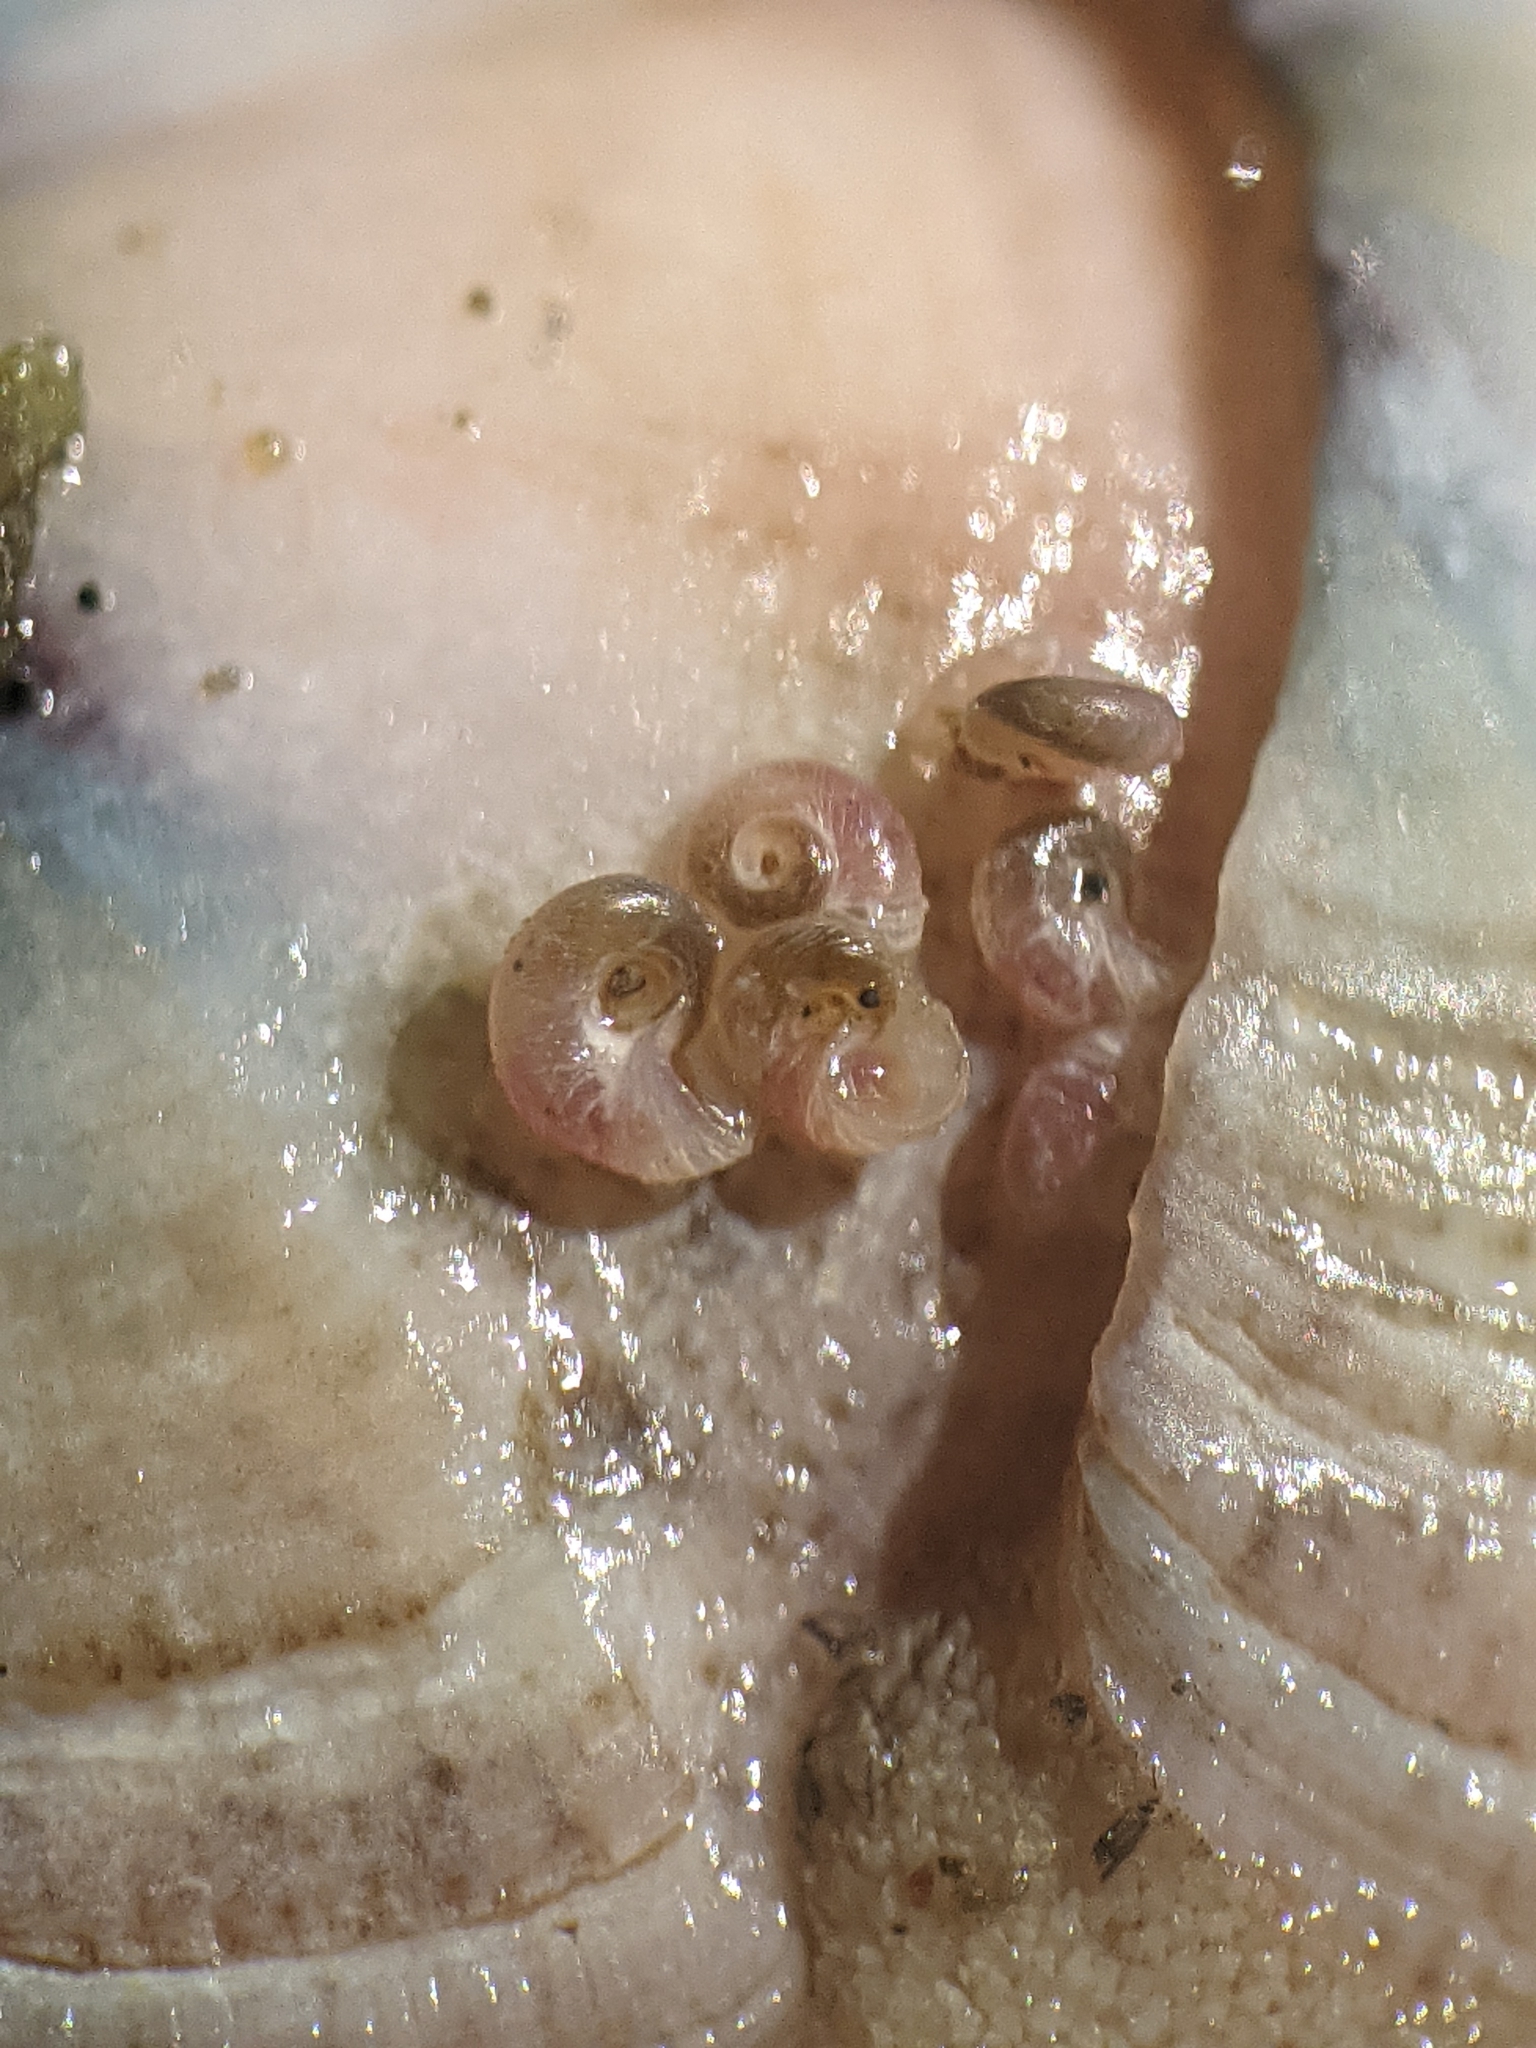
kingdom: Animalia
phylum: Mollusca
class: Gastropoda
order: Littorinimorpha
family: Vitrinellidae
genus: Vitrinella
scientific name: Vitrinella oldroydi
